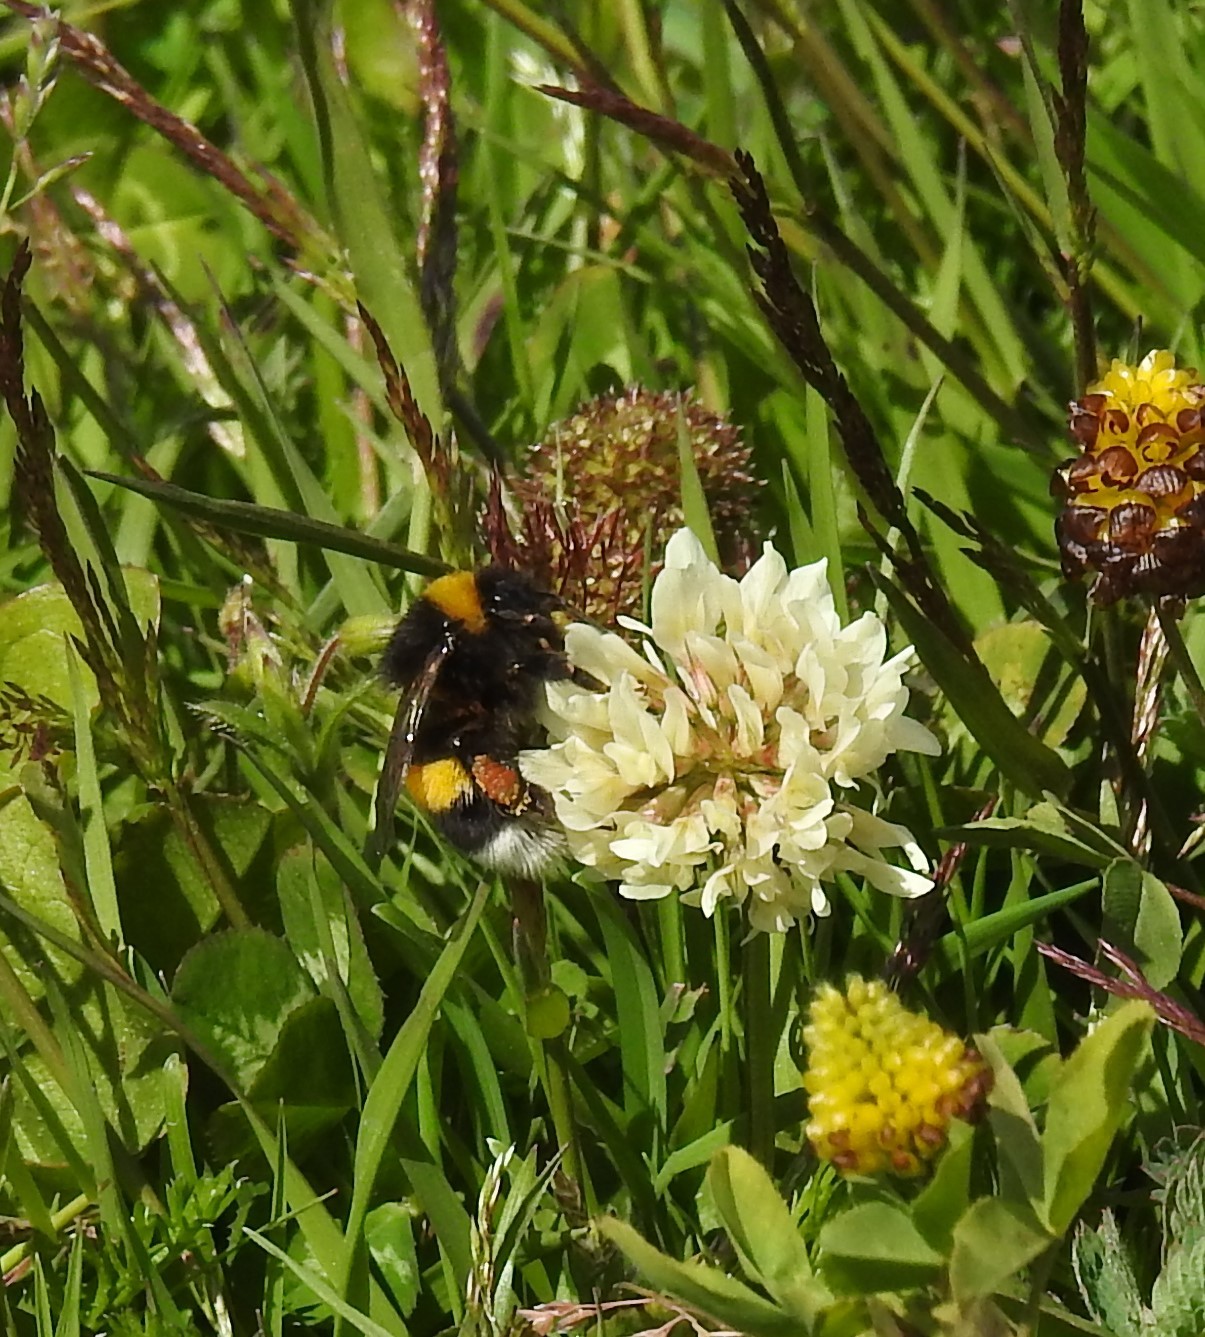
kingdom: Animalia
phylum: Arthropoda
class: Insecta
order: Hymenoptera
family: Apidae
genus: Bombus
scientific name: Bombus terrestris
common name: Buff-tailed bumblebee
